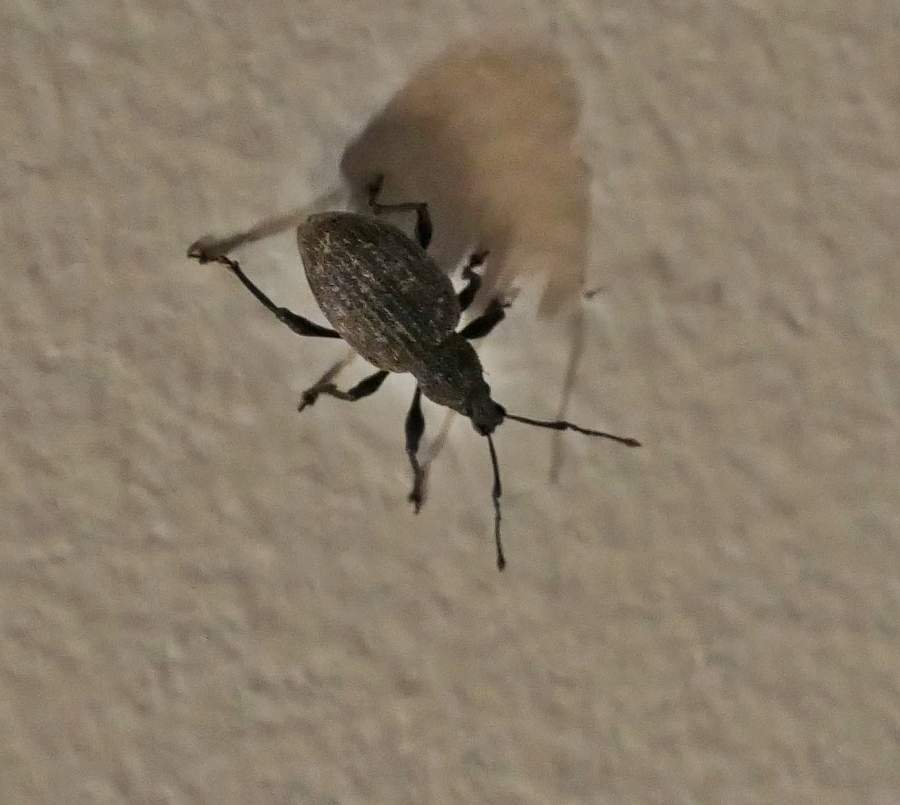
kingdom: Animalia
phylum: Arthropoda
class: Insecta
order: Coleoptera
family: Curculionidae
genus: Otiorhynchus
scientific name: Otiorhynchus sulcatus
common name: Black vine weevil
